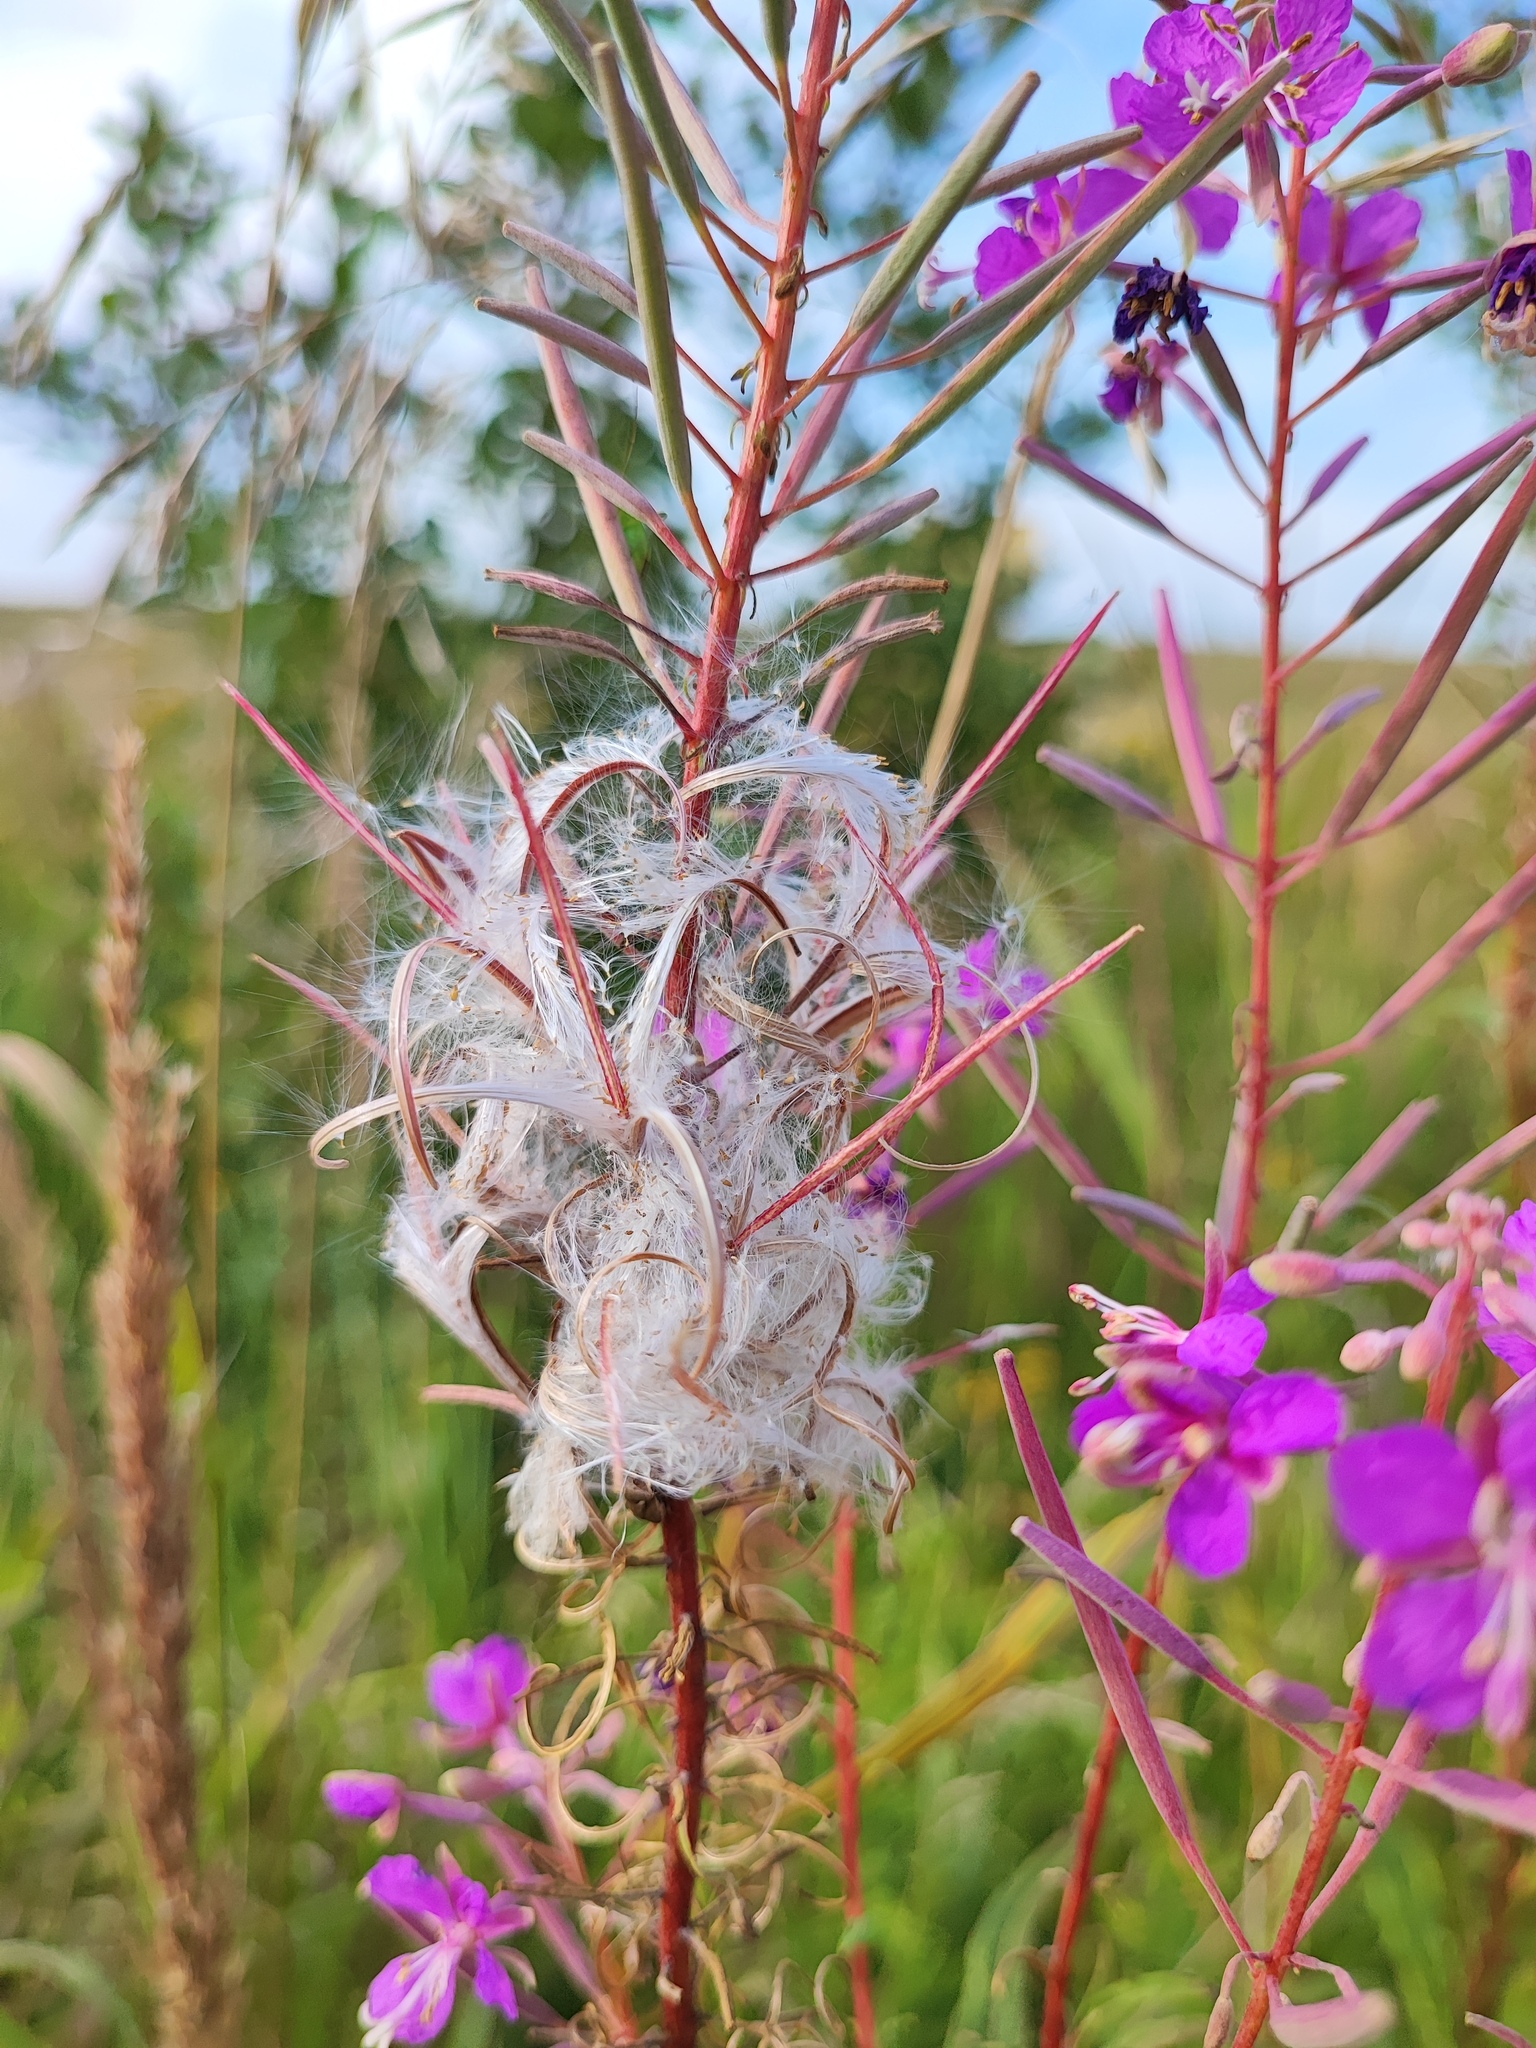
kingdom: Plantae
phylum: Tracheophyta
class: Magnoliopsida
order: Myrtales
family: Onagraceae
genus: Chamaenerion
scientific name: Chamaenerion angustifolium
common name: Fireweed
